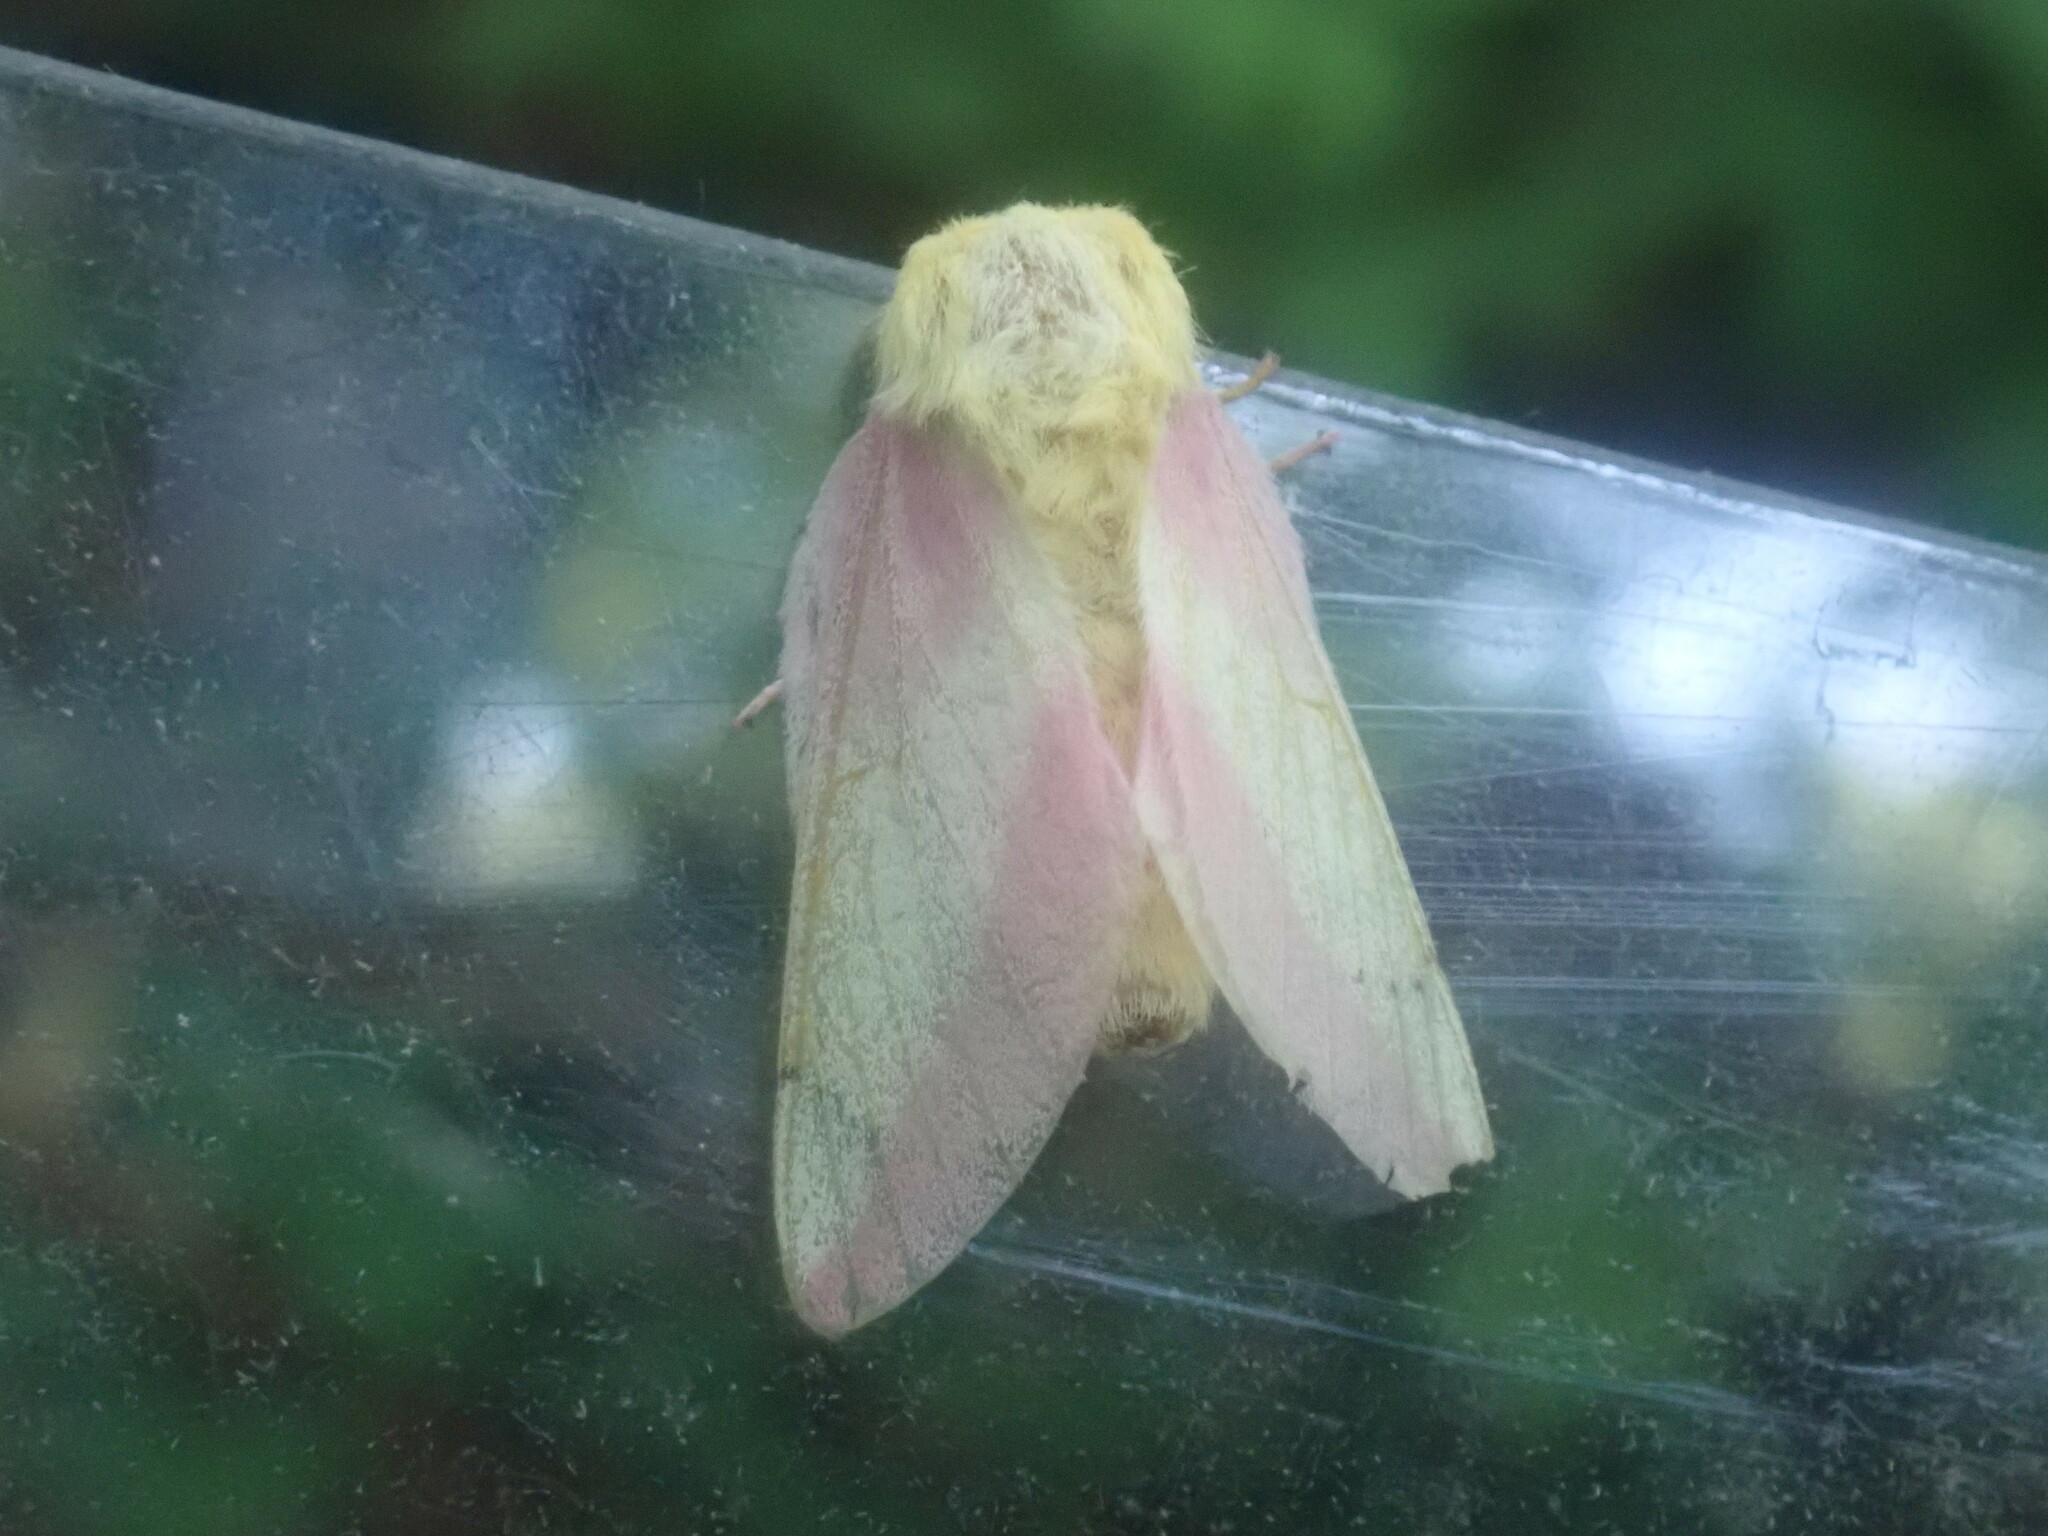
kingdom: Animalia
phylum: Arthropoda
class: Insecta
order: Lepidoptera
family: Saturniidae
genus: Dryocampa
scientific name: Dryocampa rubicunda
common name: Rosy maple moth
